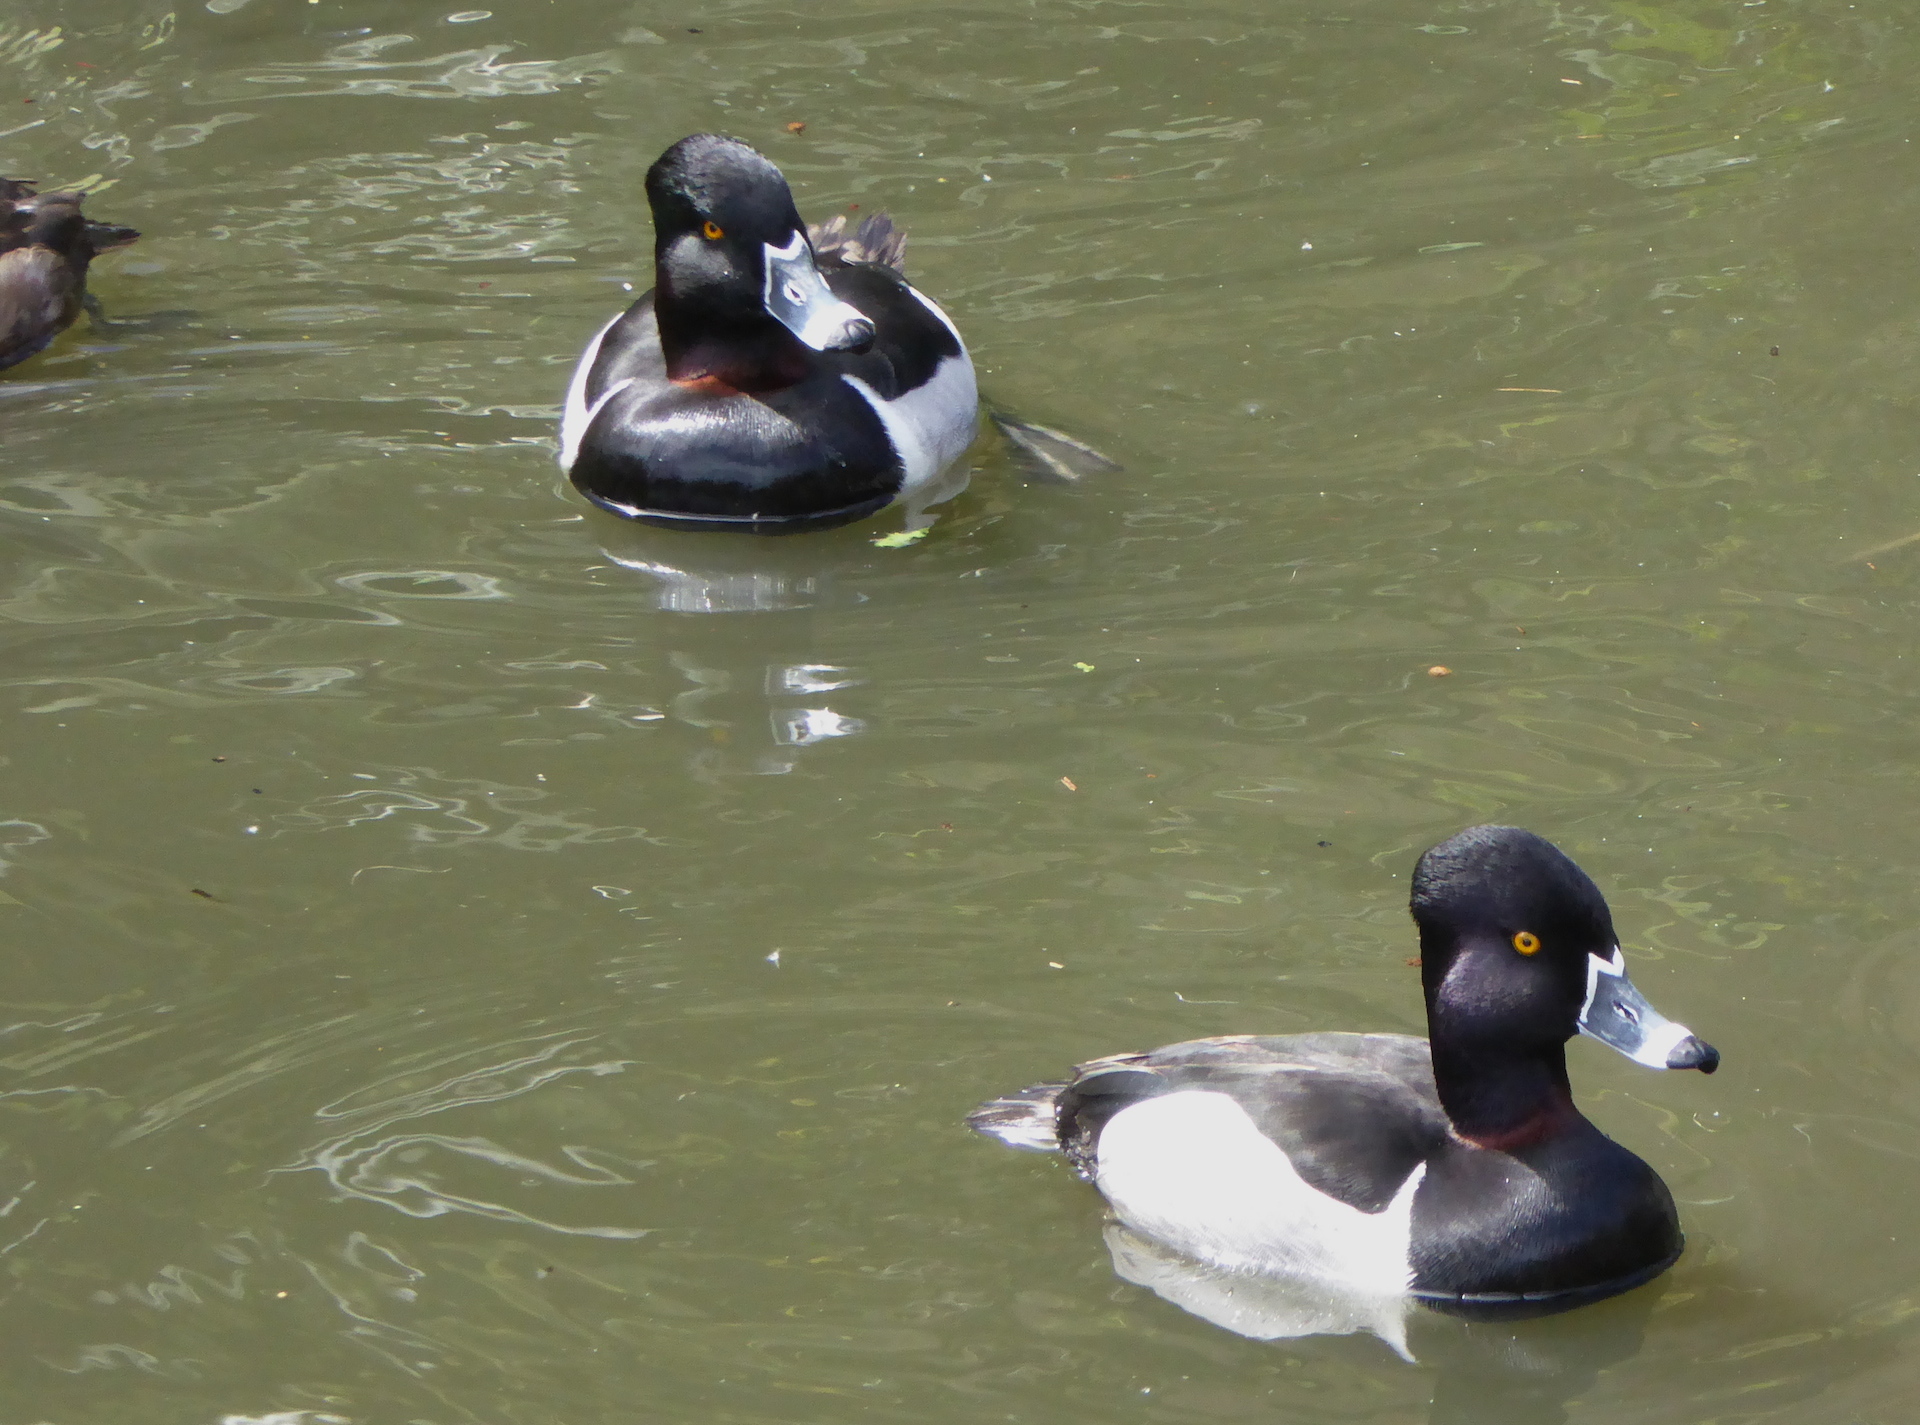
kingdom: Animalia
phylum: Chordata
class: Aves
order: Anseriformes
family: Anatidae
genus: Aythya
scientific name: Aythya collaris
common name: Ring-necked duck
